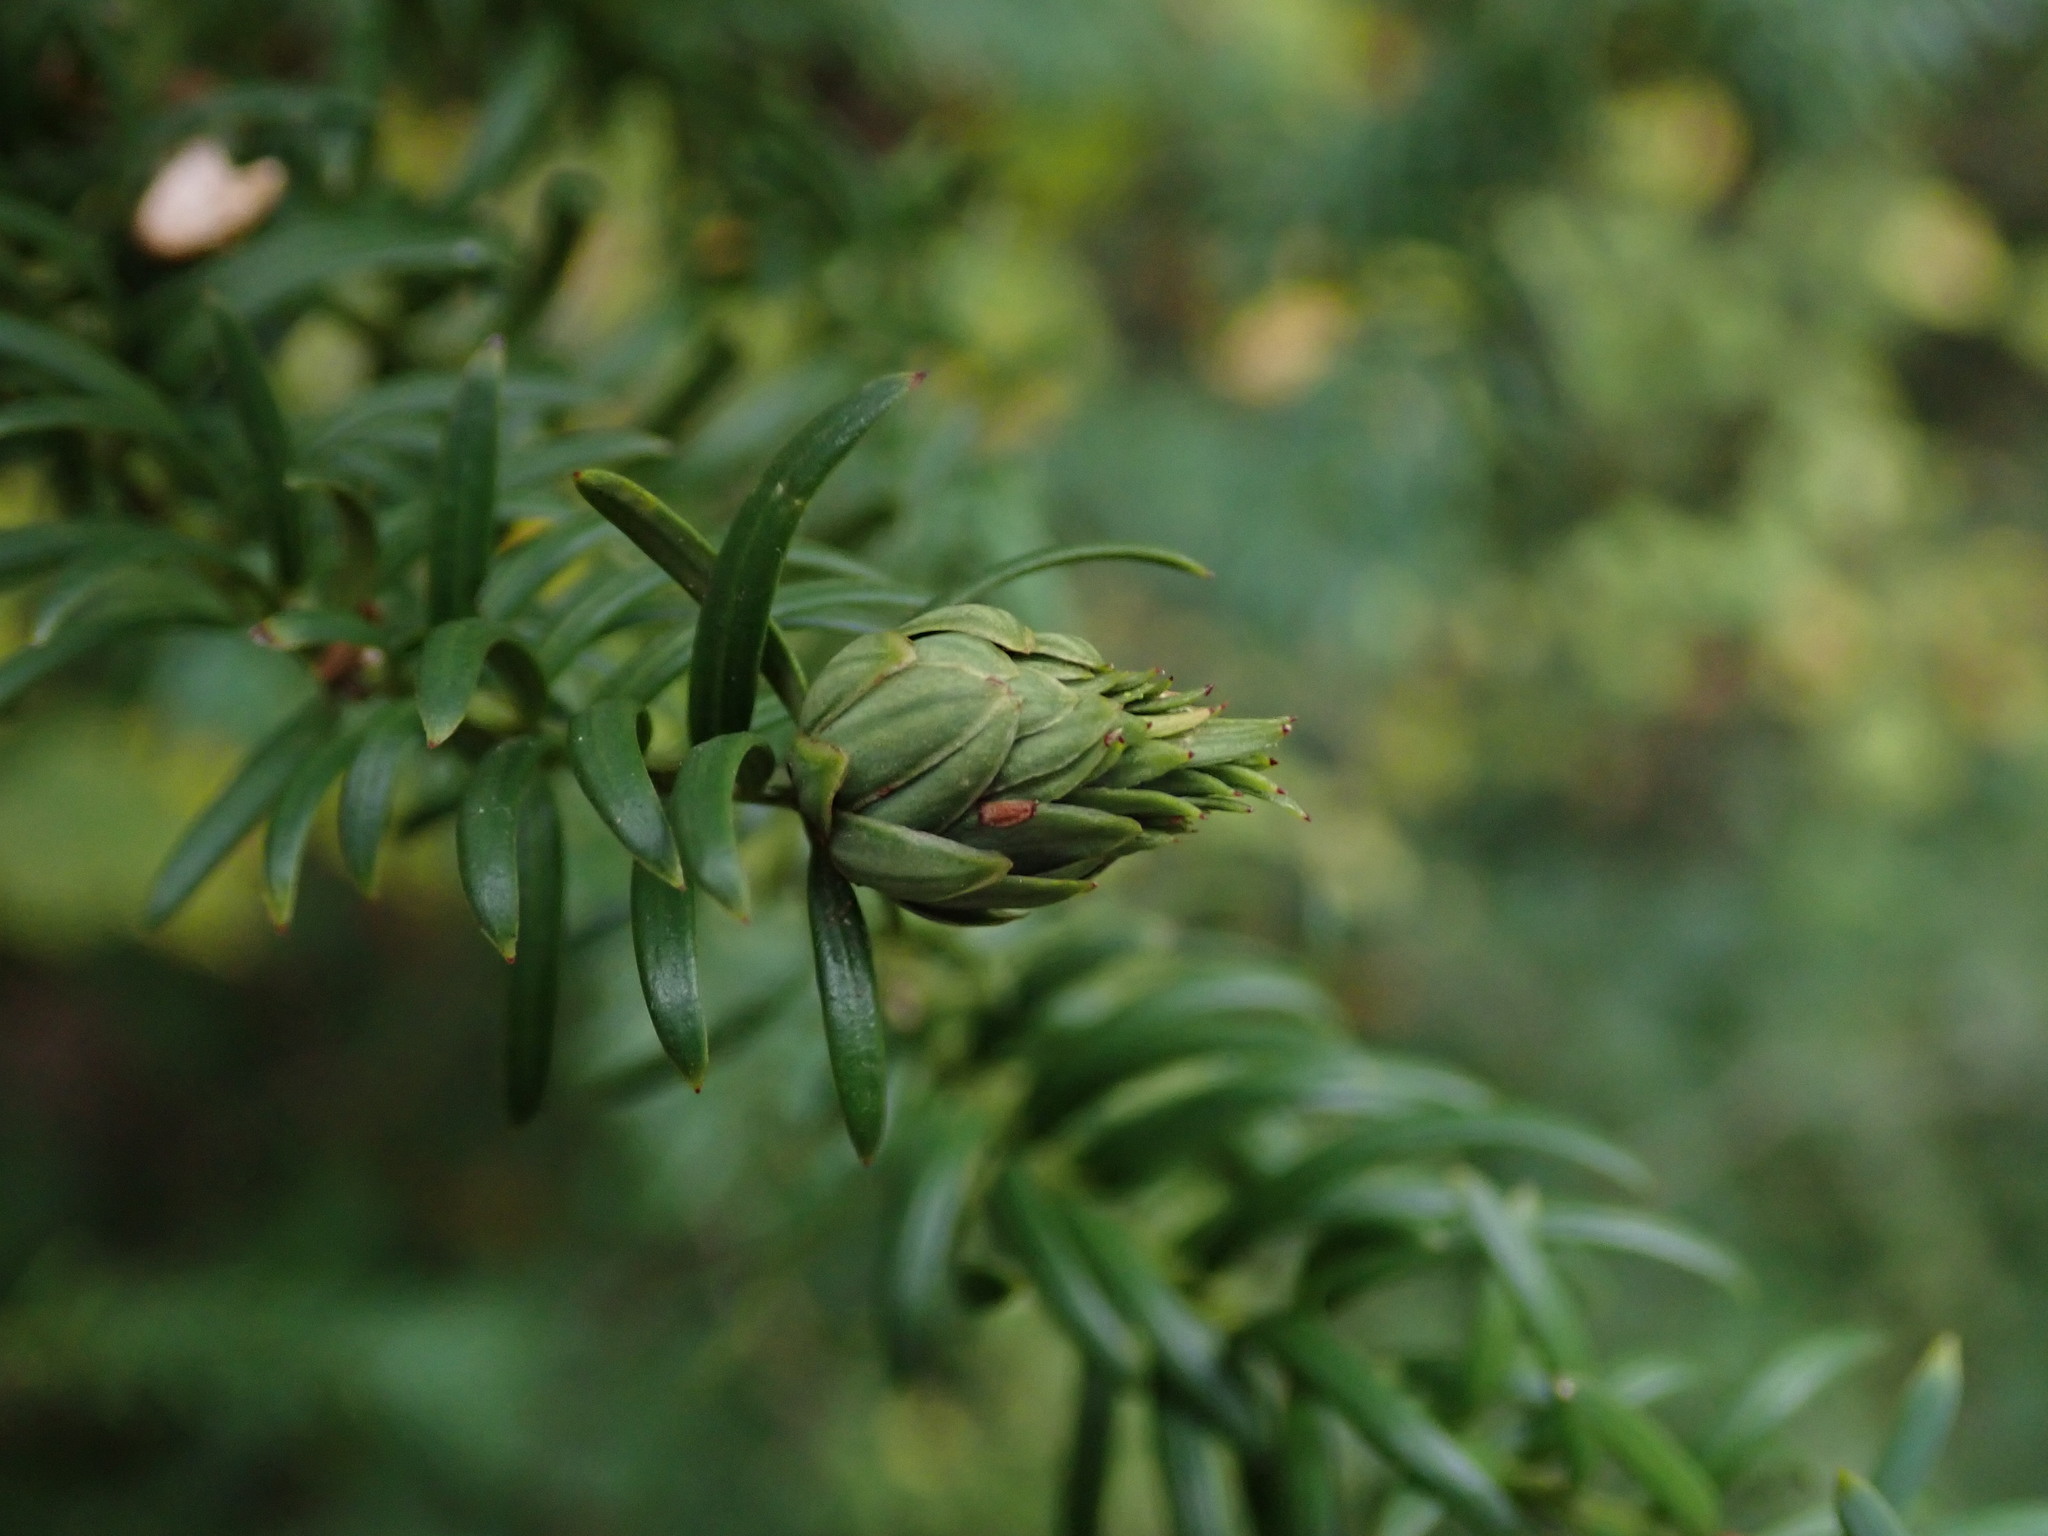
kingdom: Animalia
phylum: Arthropoda
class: Insecta
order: Diptera
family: Cecidomyiidae
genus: Taxomyia
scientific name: Taxomyia taxi
